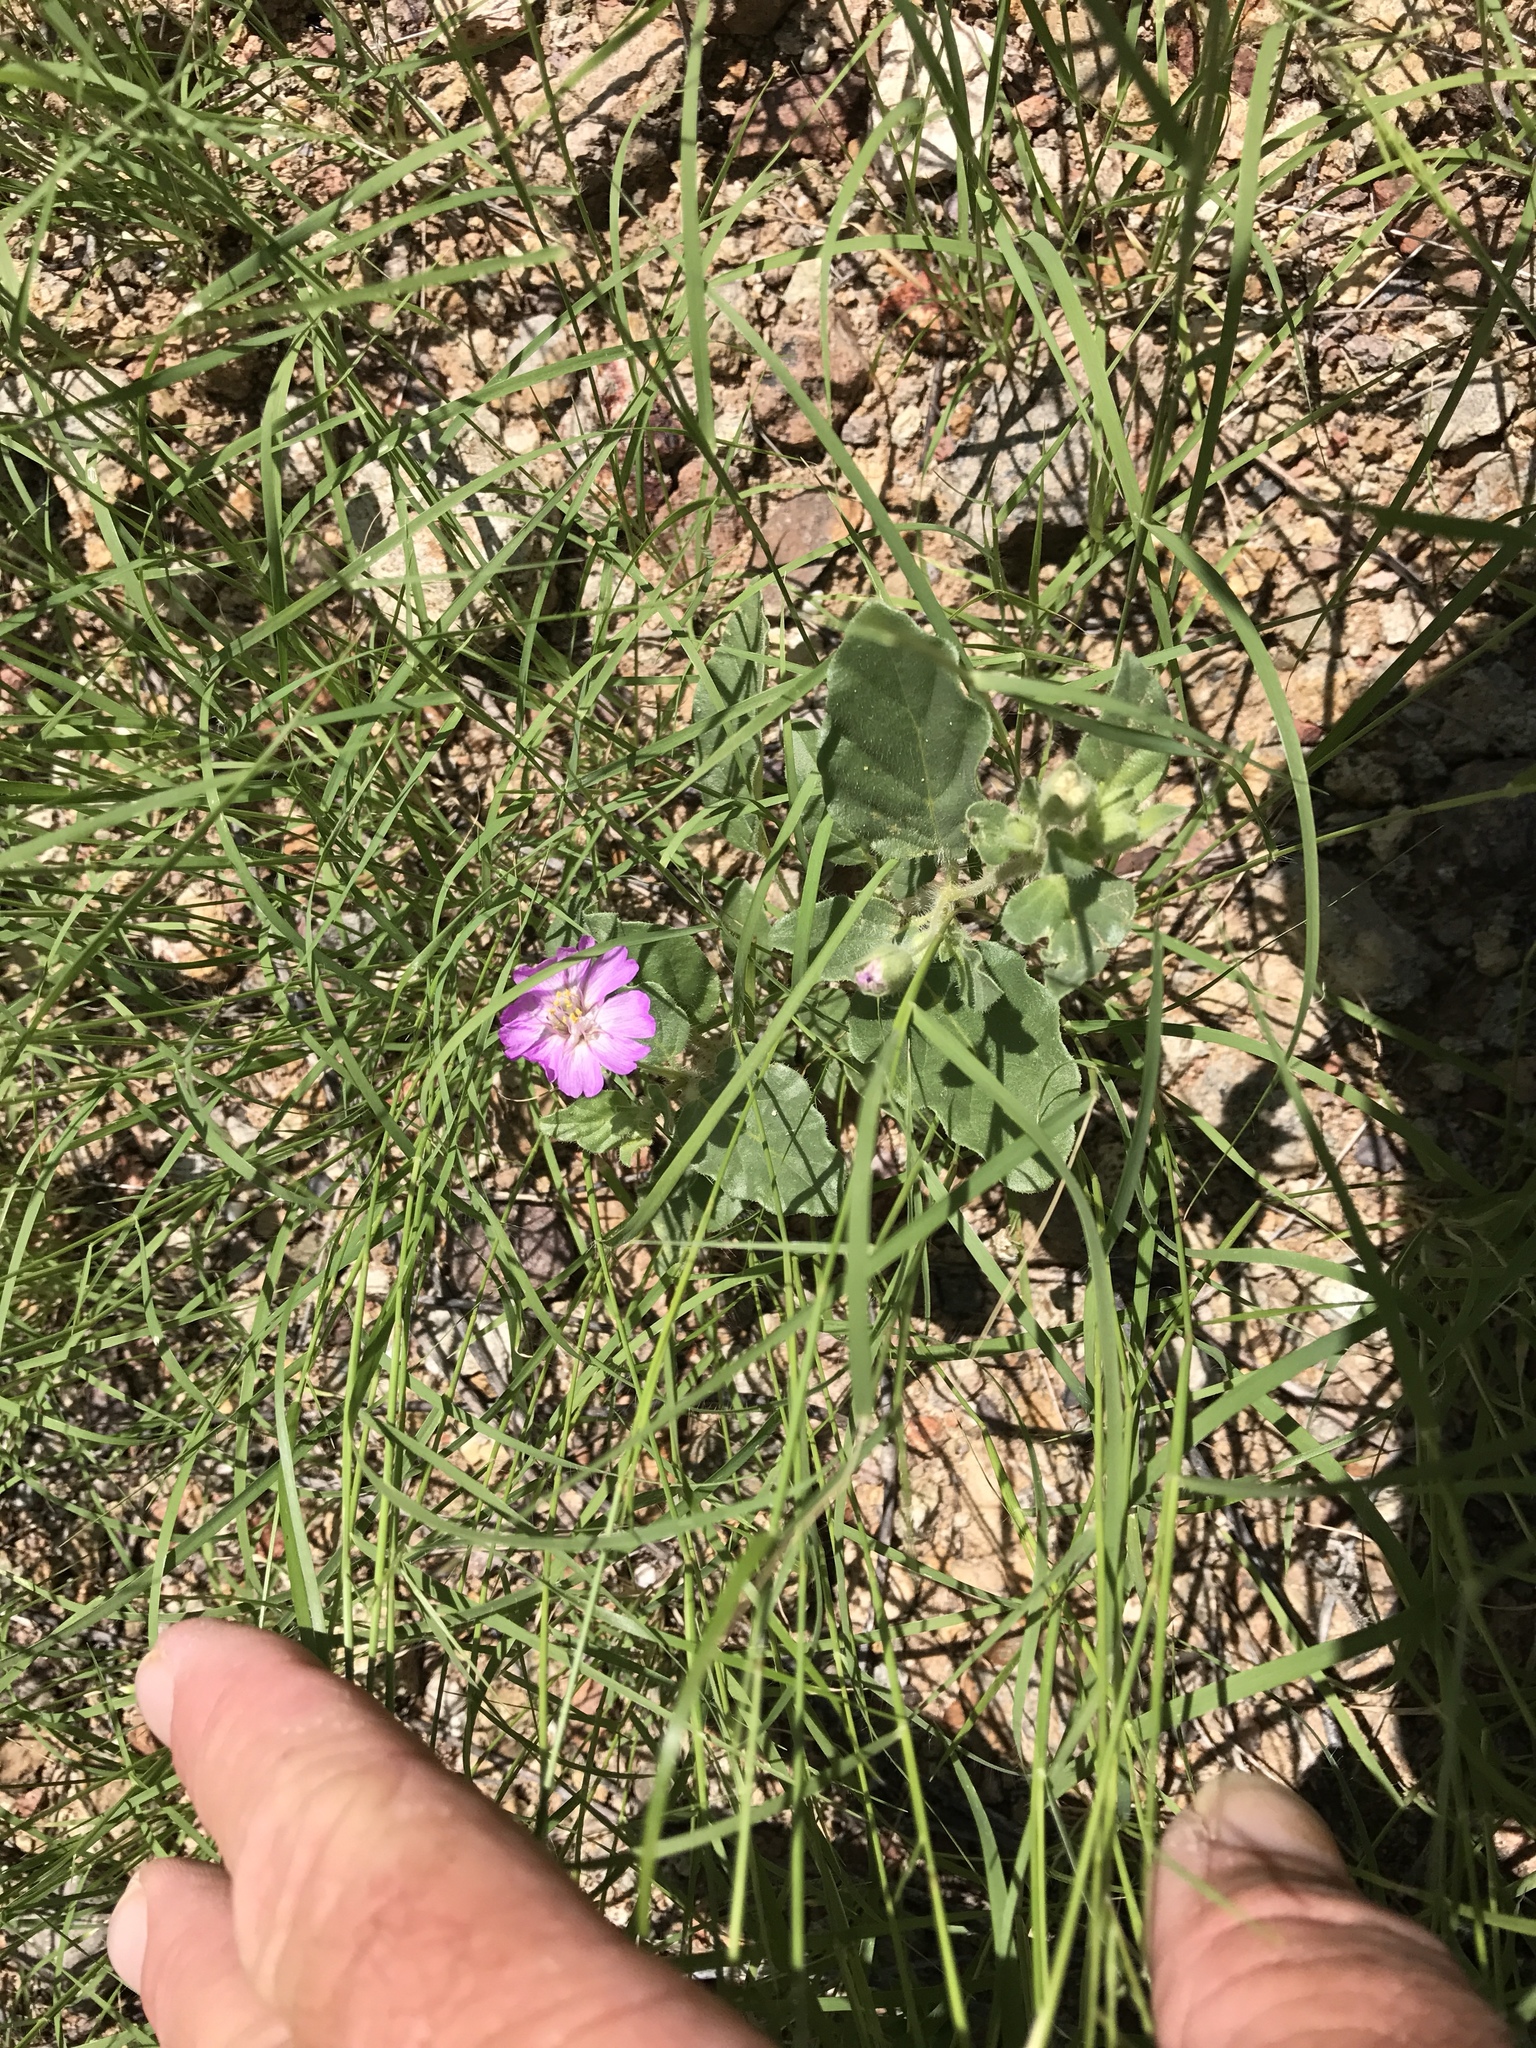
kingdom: Plantae
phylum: Tracheophyta
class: Magnoliopsida
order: Caryophyllales
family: Nyctaginaceae
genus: Allionia
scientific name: Allionia incarnata
